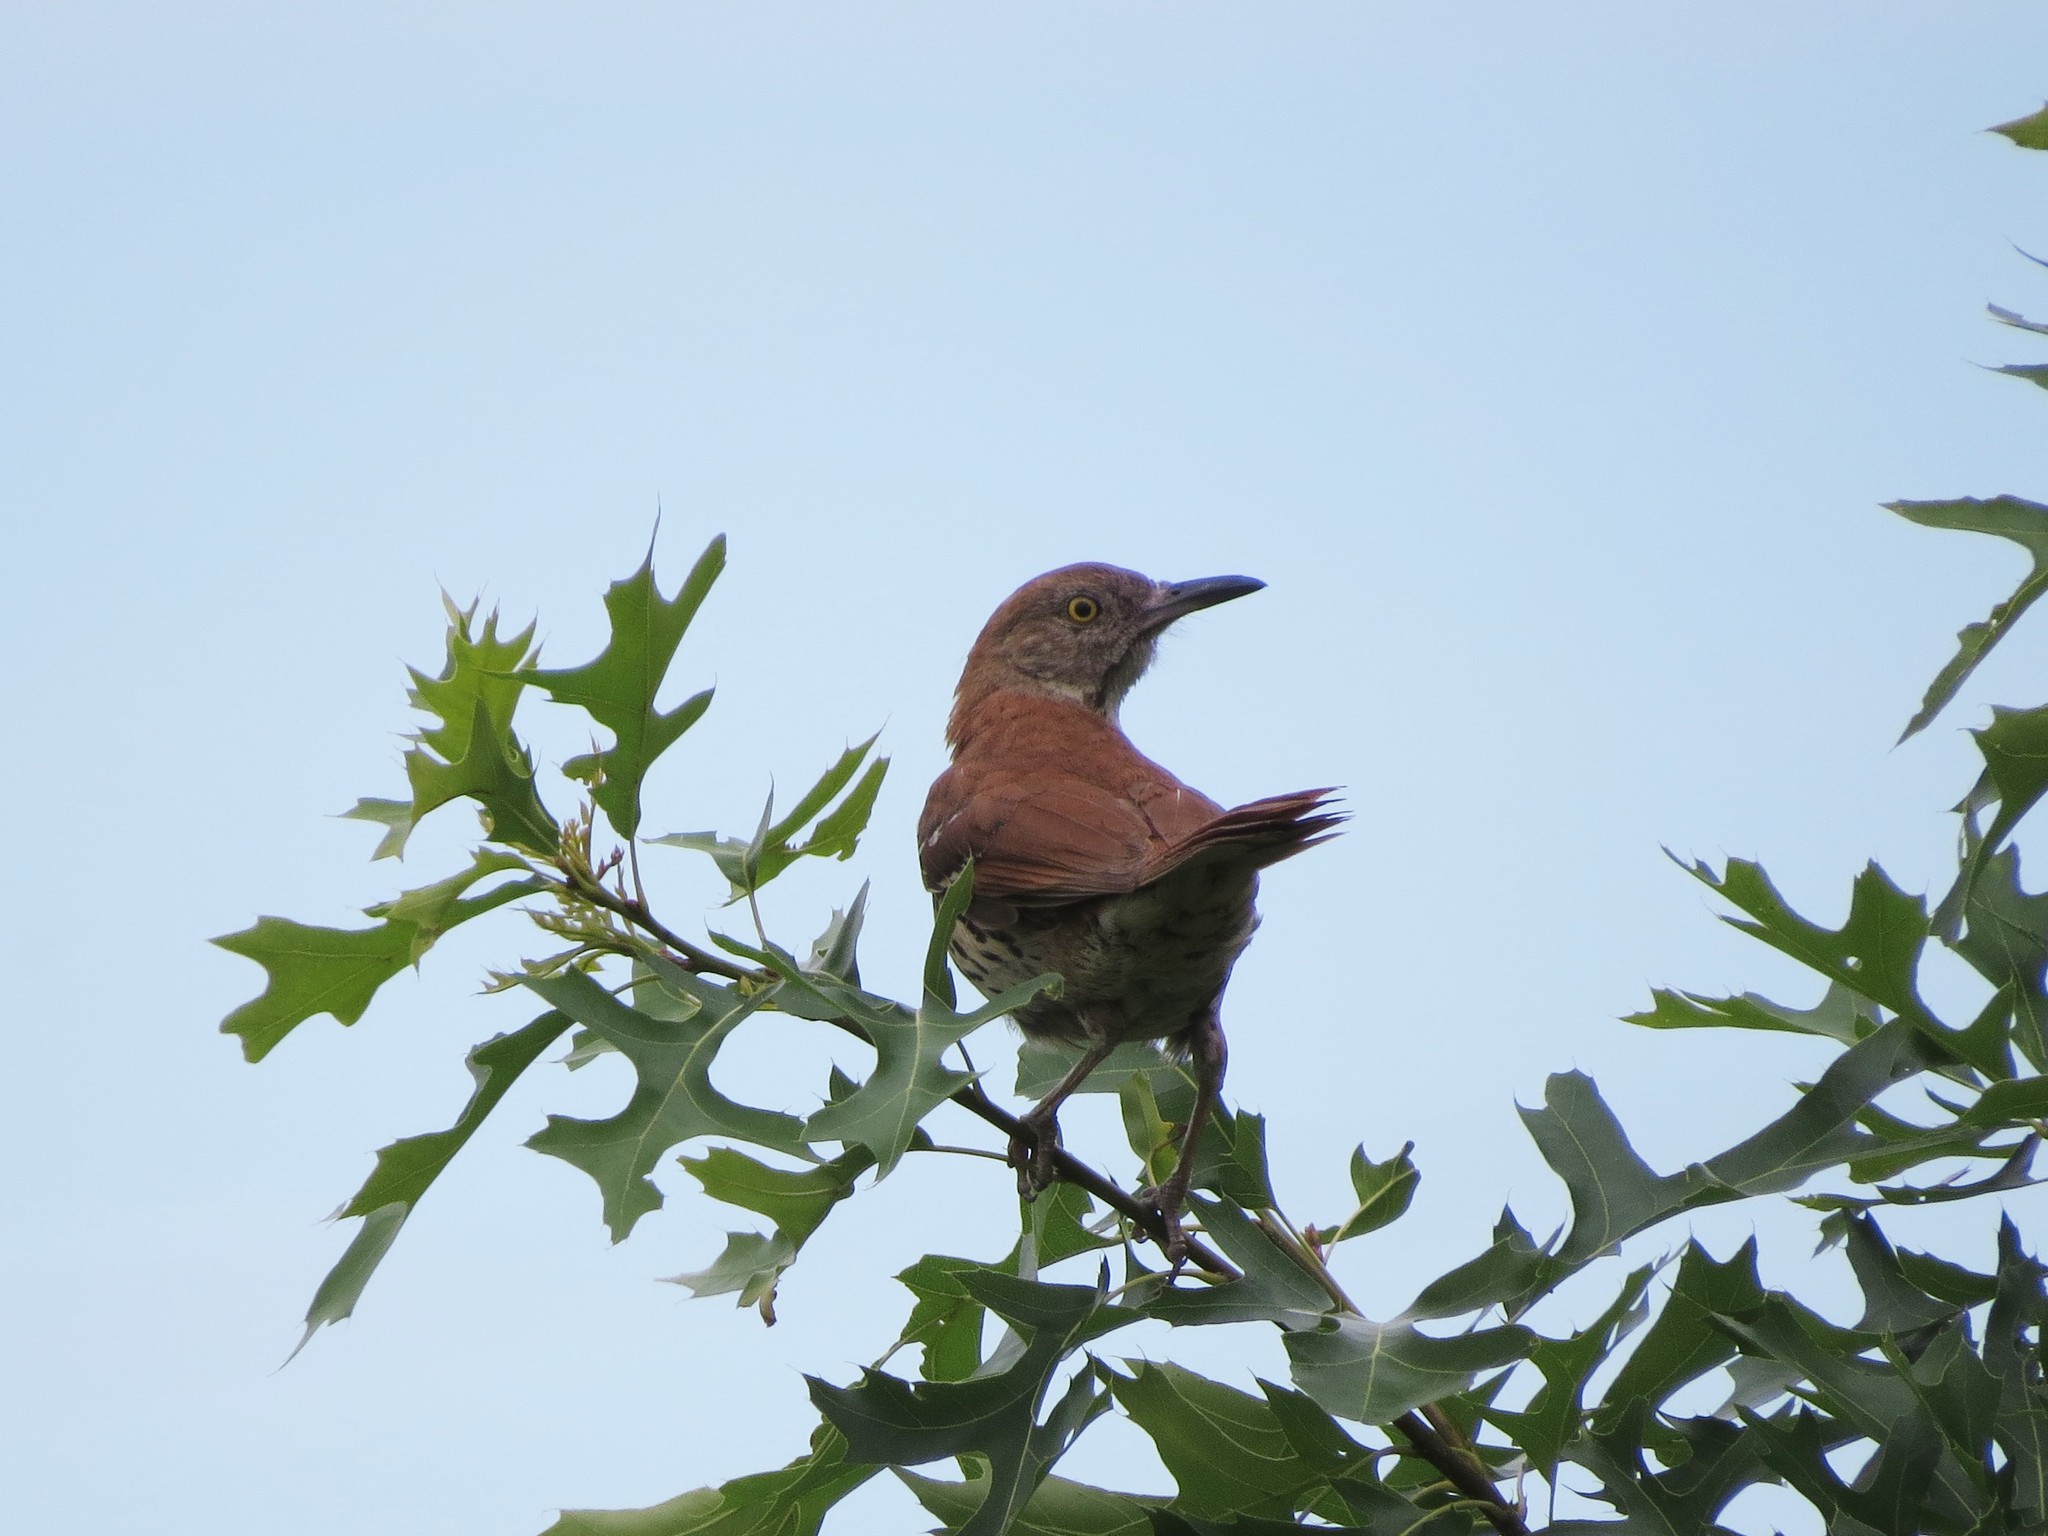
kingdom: Animalia
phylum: Chordata
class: Aves
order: Passeriformes
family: Mimidae
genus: Toxostoma
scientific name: Toxostoma rufum
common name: Brown thrasher
